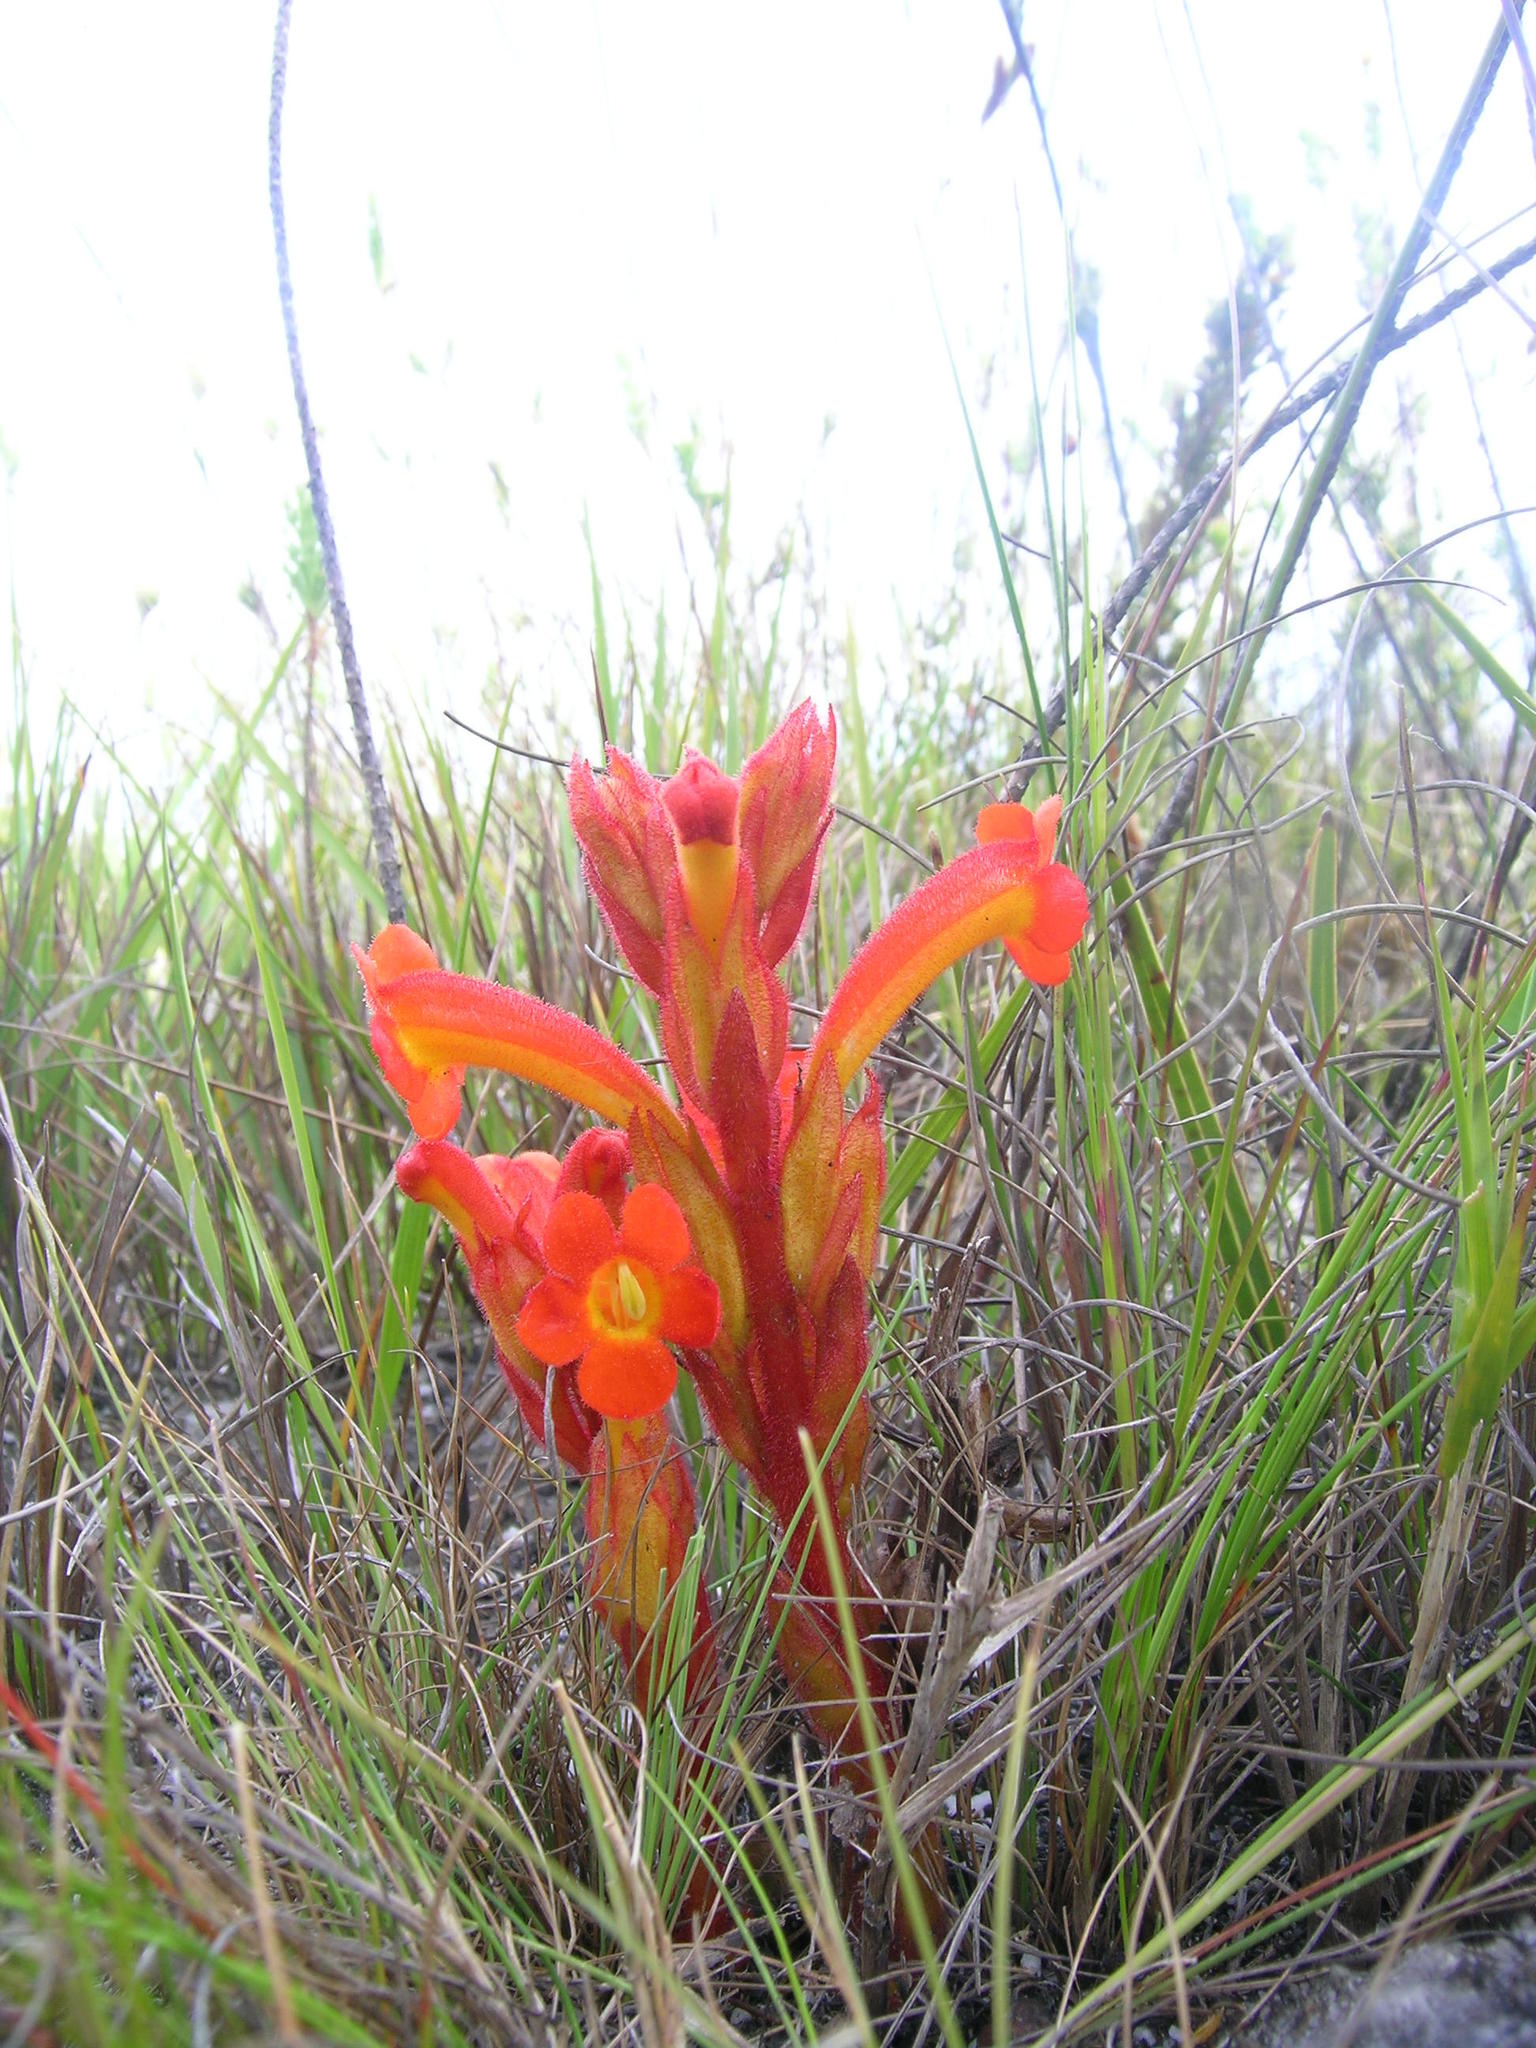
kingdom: Plantae
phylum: Tracheophyta
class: Magnoliopsida
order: Lamiales
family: Orobanchaceae
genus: Harveya
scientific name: Harveya bolusii
